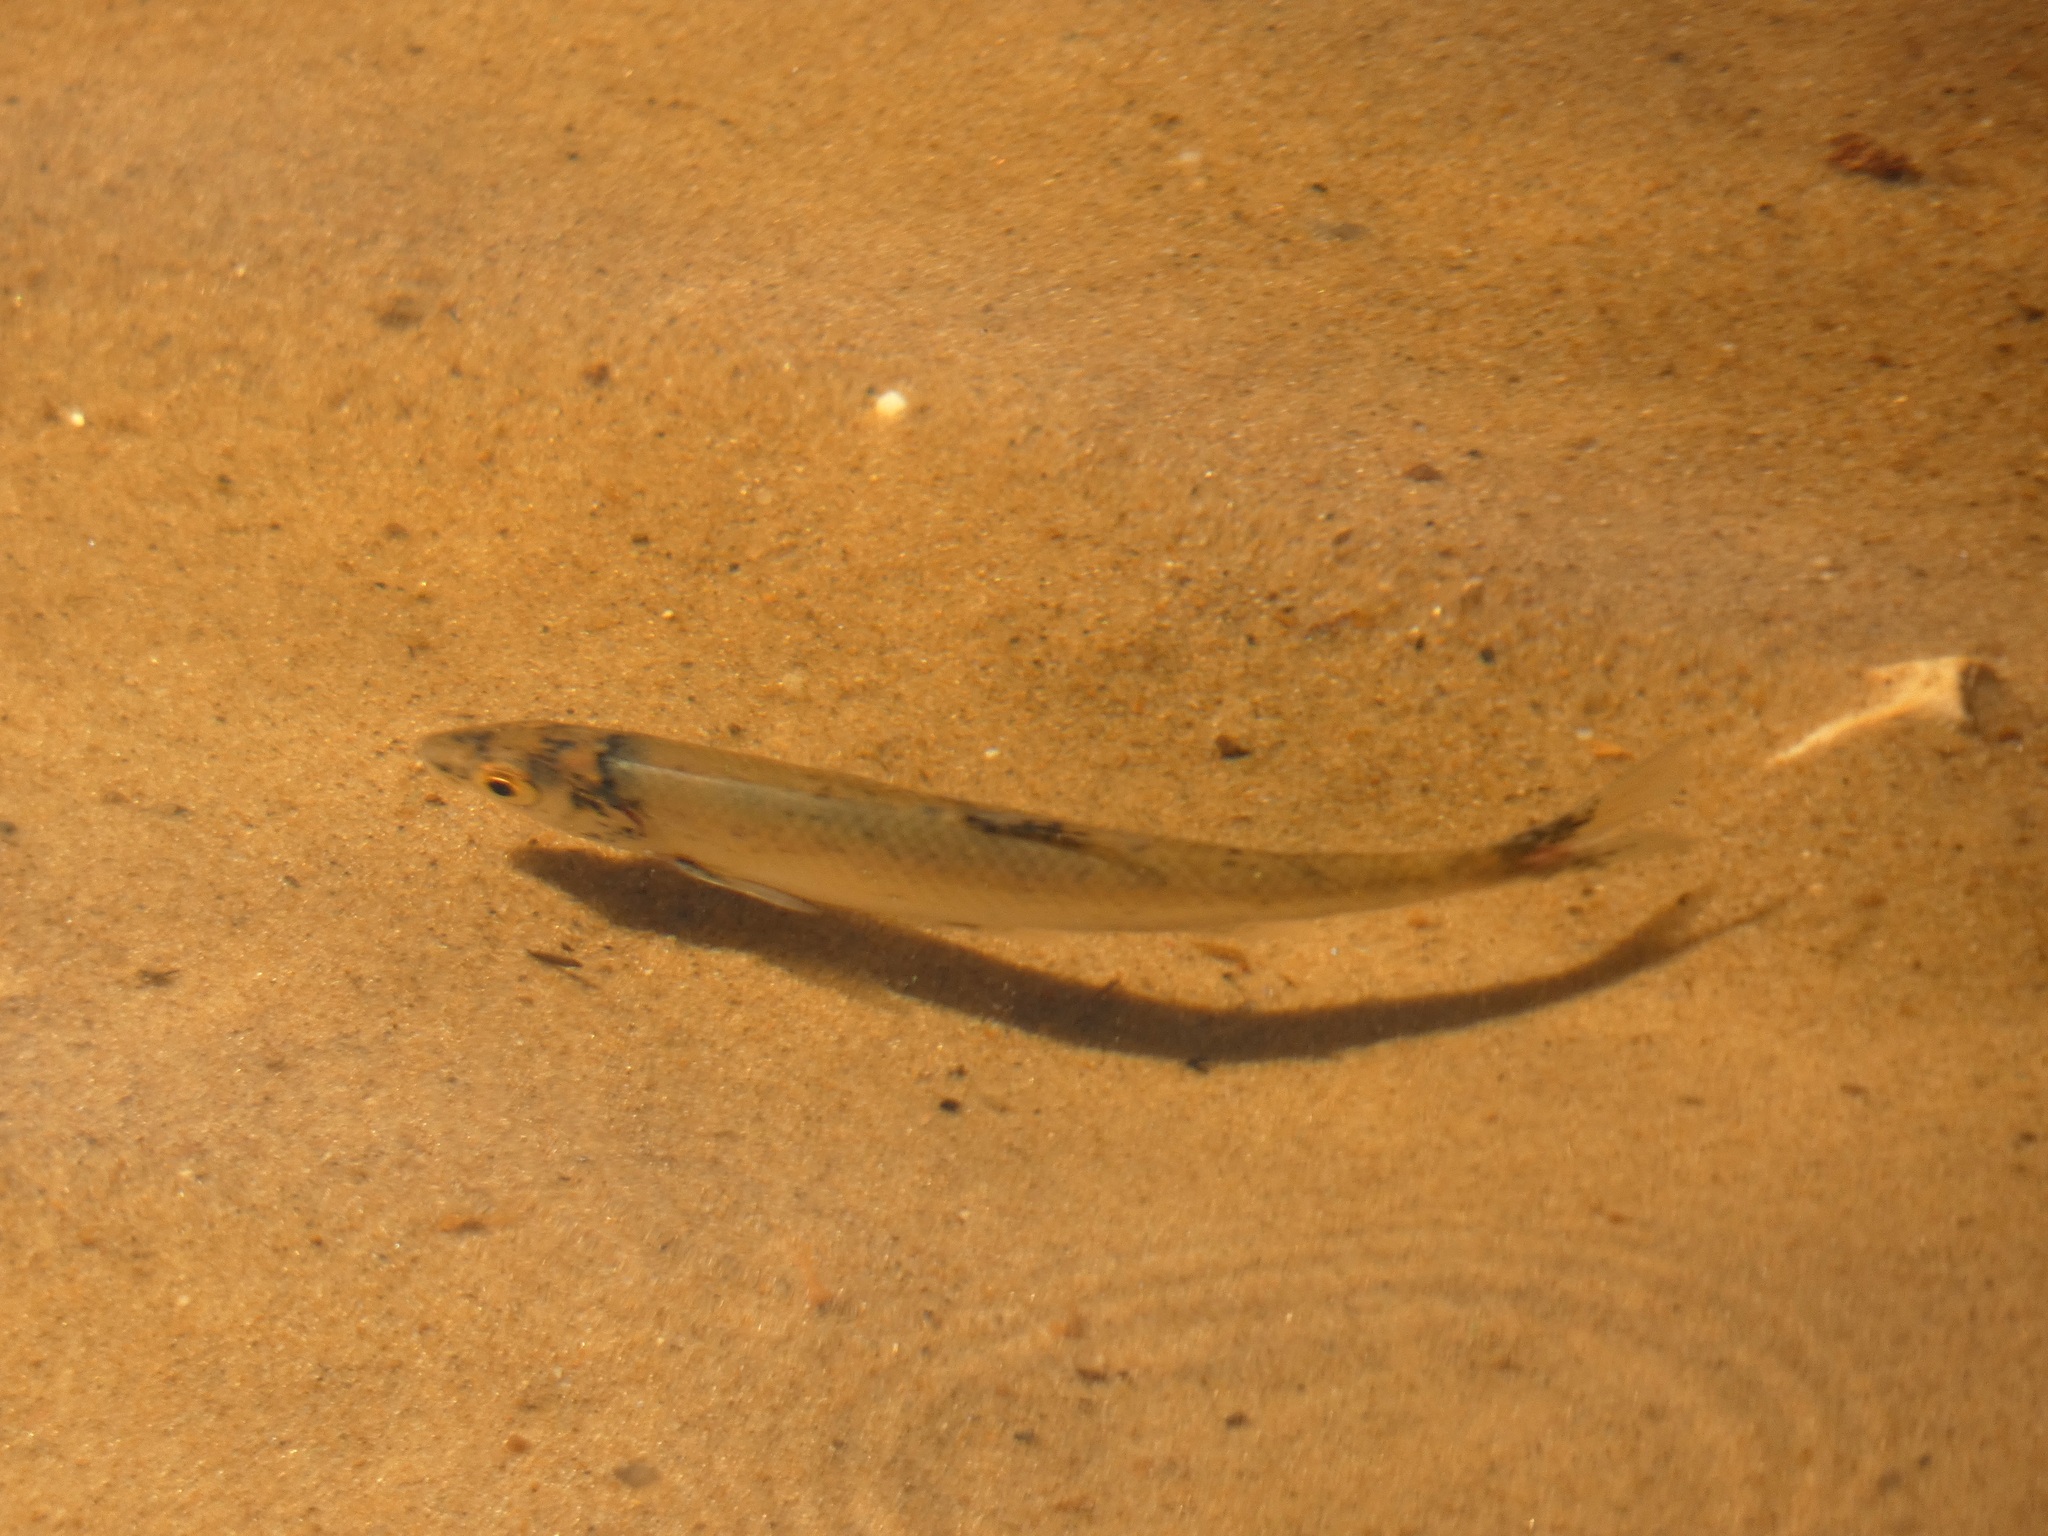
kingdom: Animalia
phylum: Chordata
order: Cypriniformes
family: Cyprinidae
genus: Leuciscus
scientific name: Leuciscus leuciscus
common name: Dace
